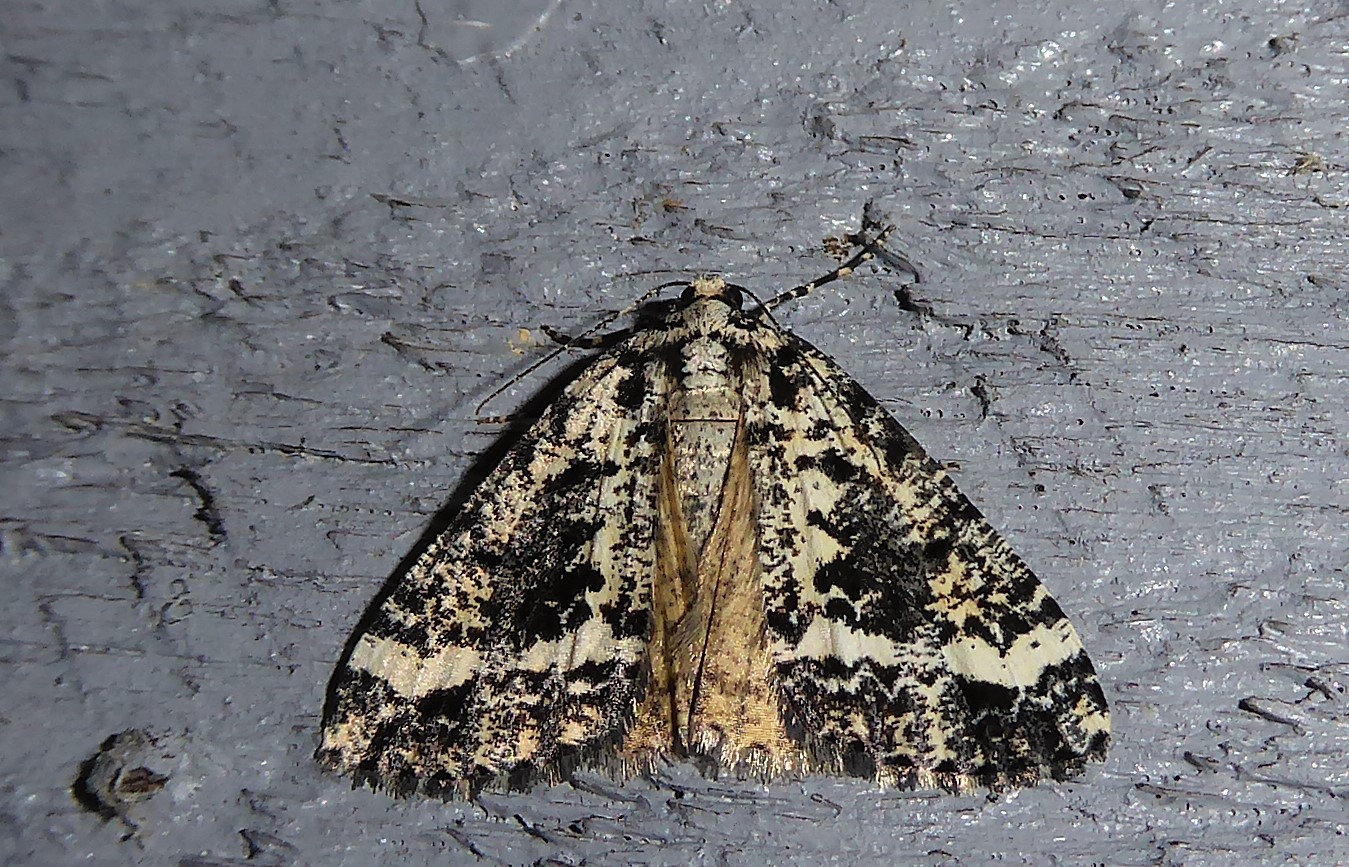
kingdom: Animalia
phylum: Arthropoda
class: Insecta
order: Lepidoptera
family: Geometridae
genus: Pseudocoremia
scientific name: Pseudocoremia leucelaea
